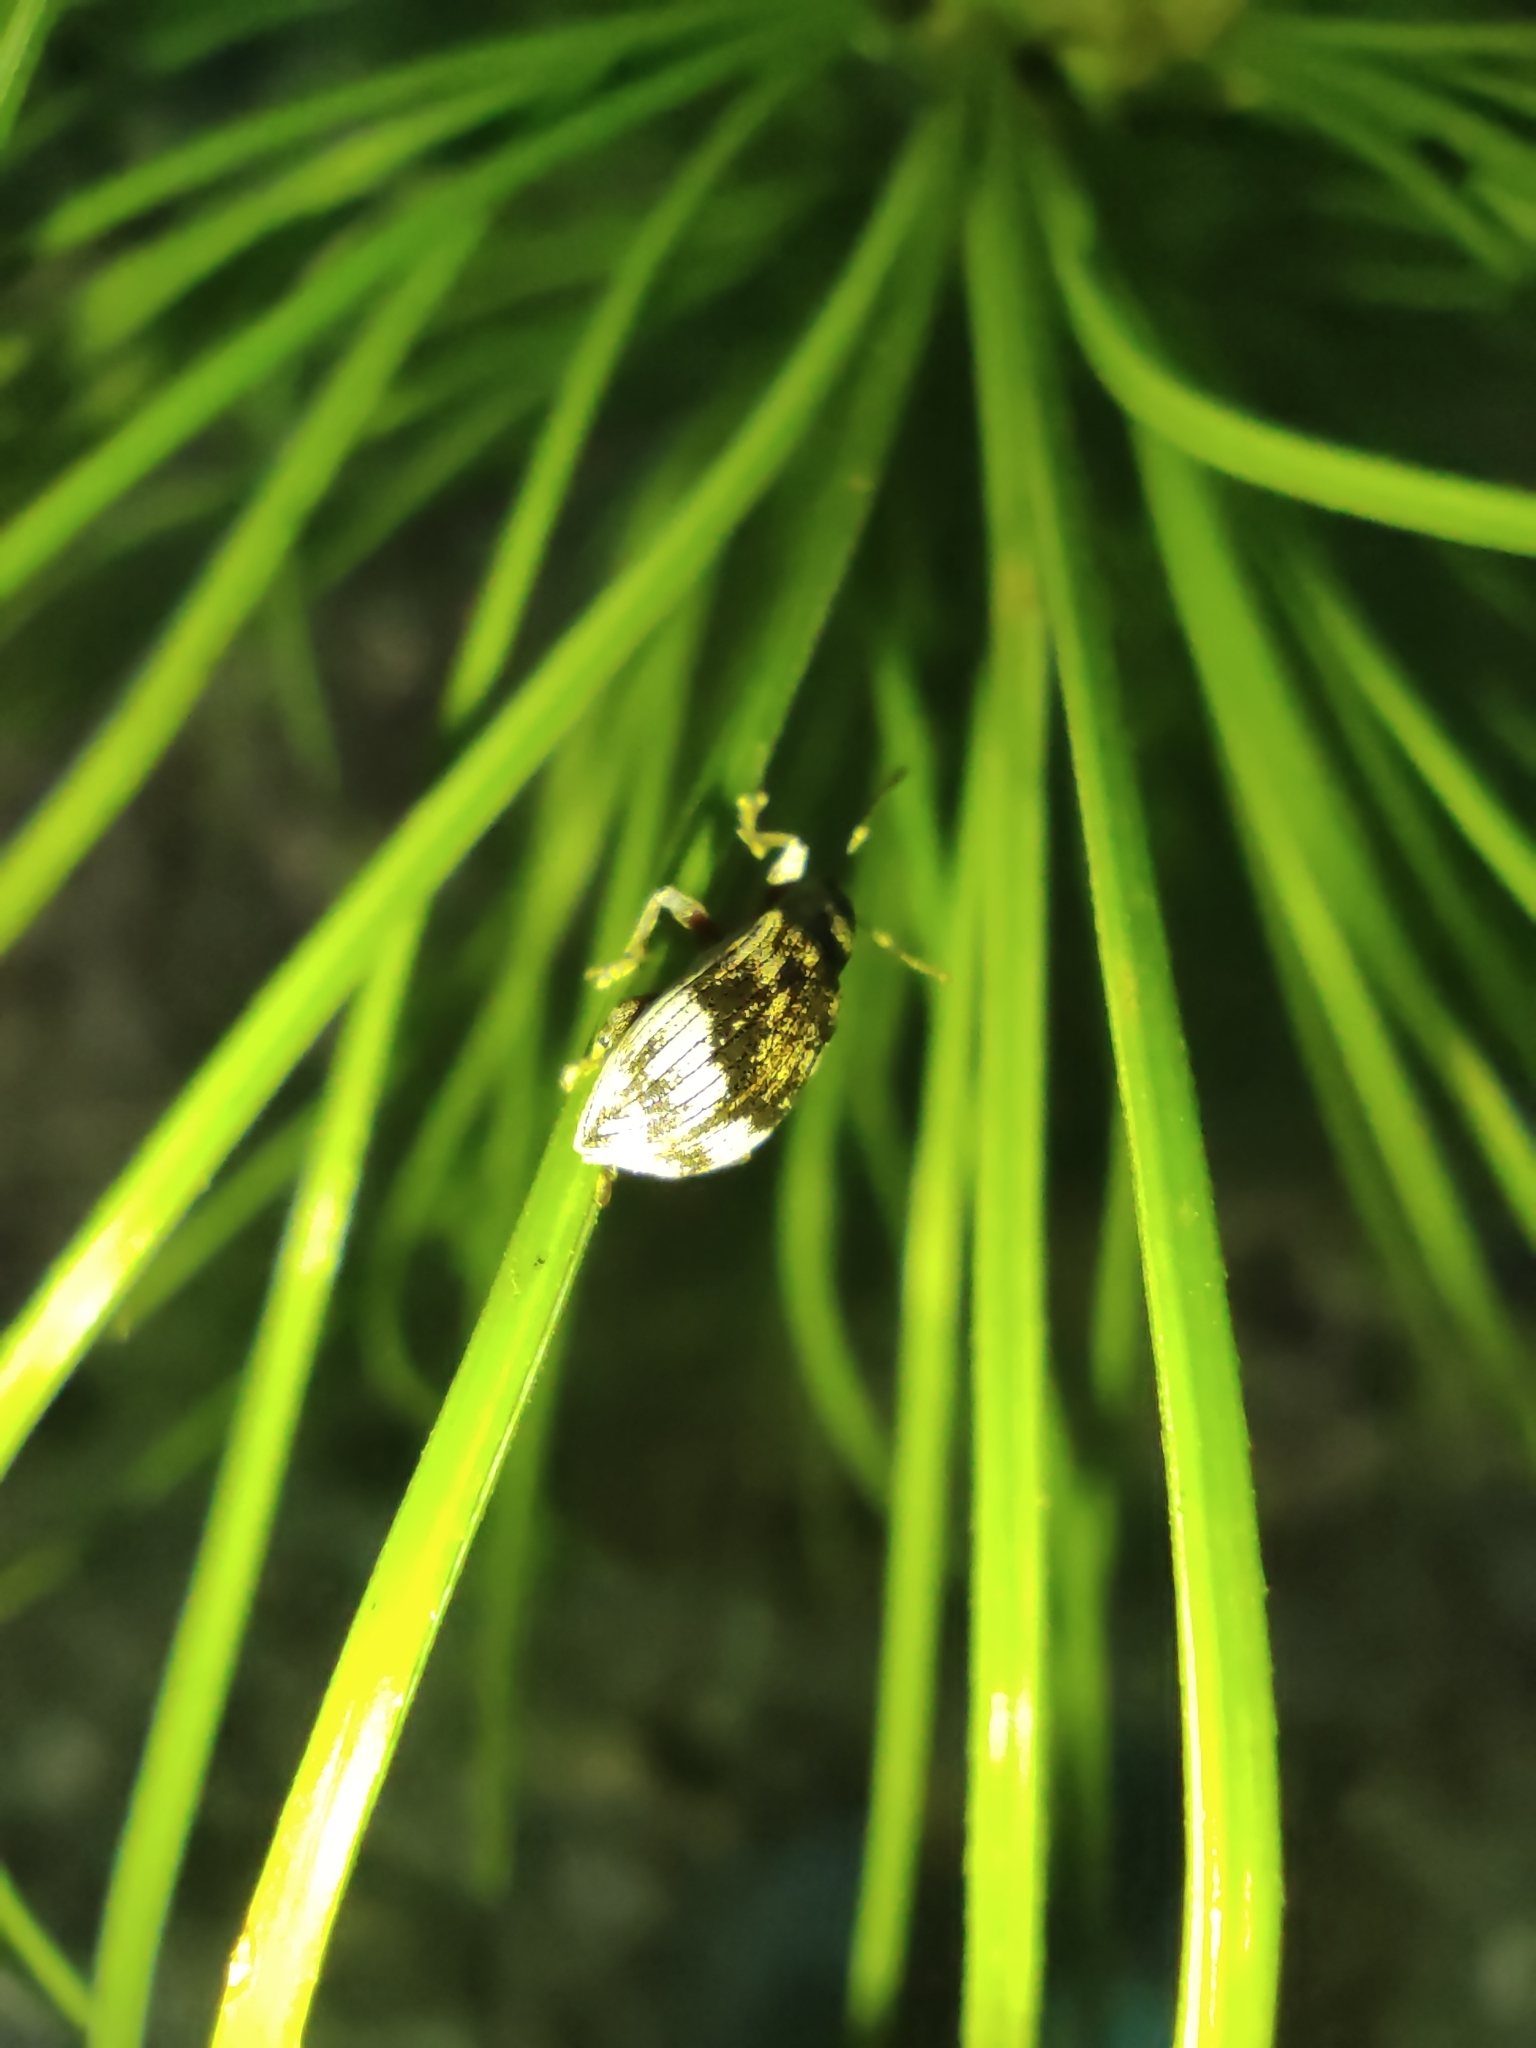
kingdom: Animalia
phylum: Arthropoda
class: Insecta
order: Coleoptera
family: Curculionidae
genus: Polydrusus
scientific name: Polydrusus tereticollis
